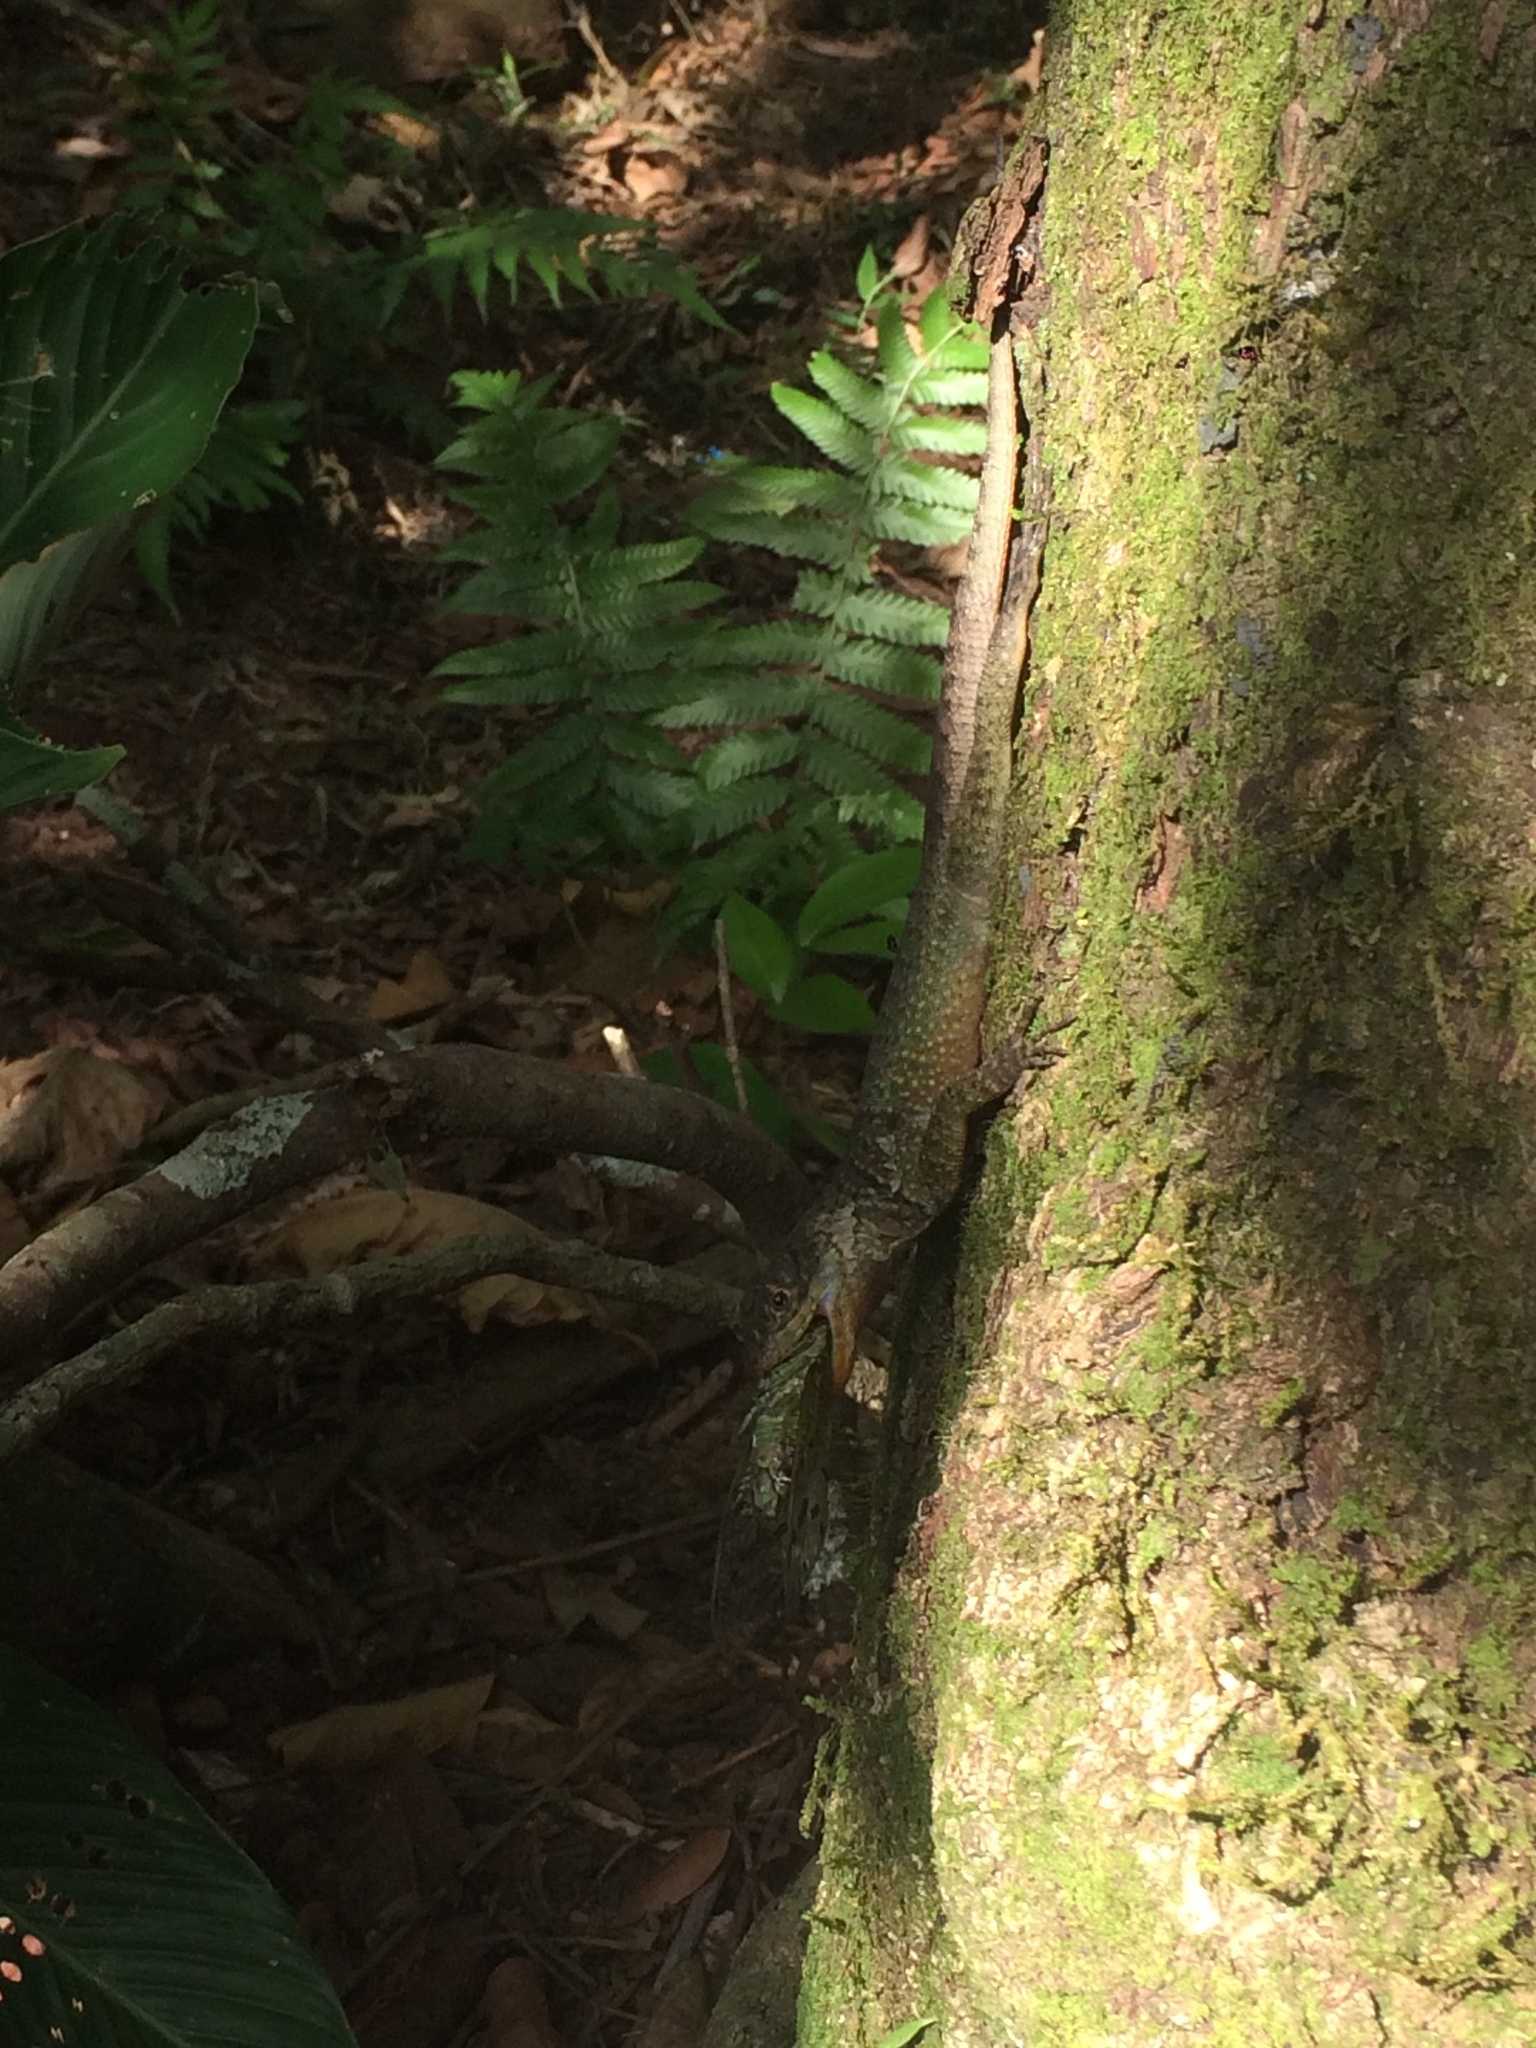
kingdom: Animalia
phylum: Chordata
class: Squamata
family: Tropiduridae
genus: Tropidurus
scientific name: Tropidurus catalanensis
